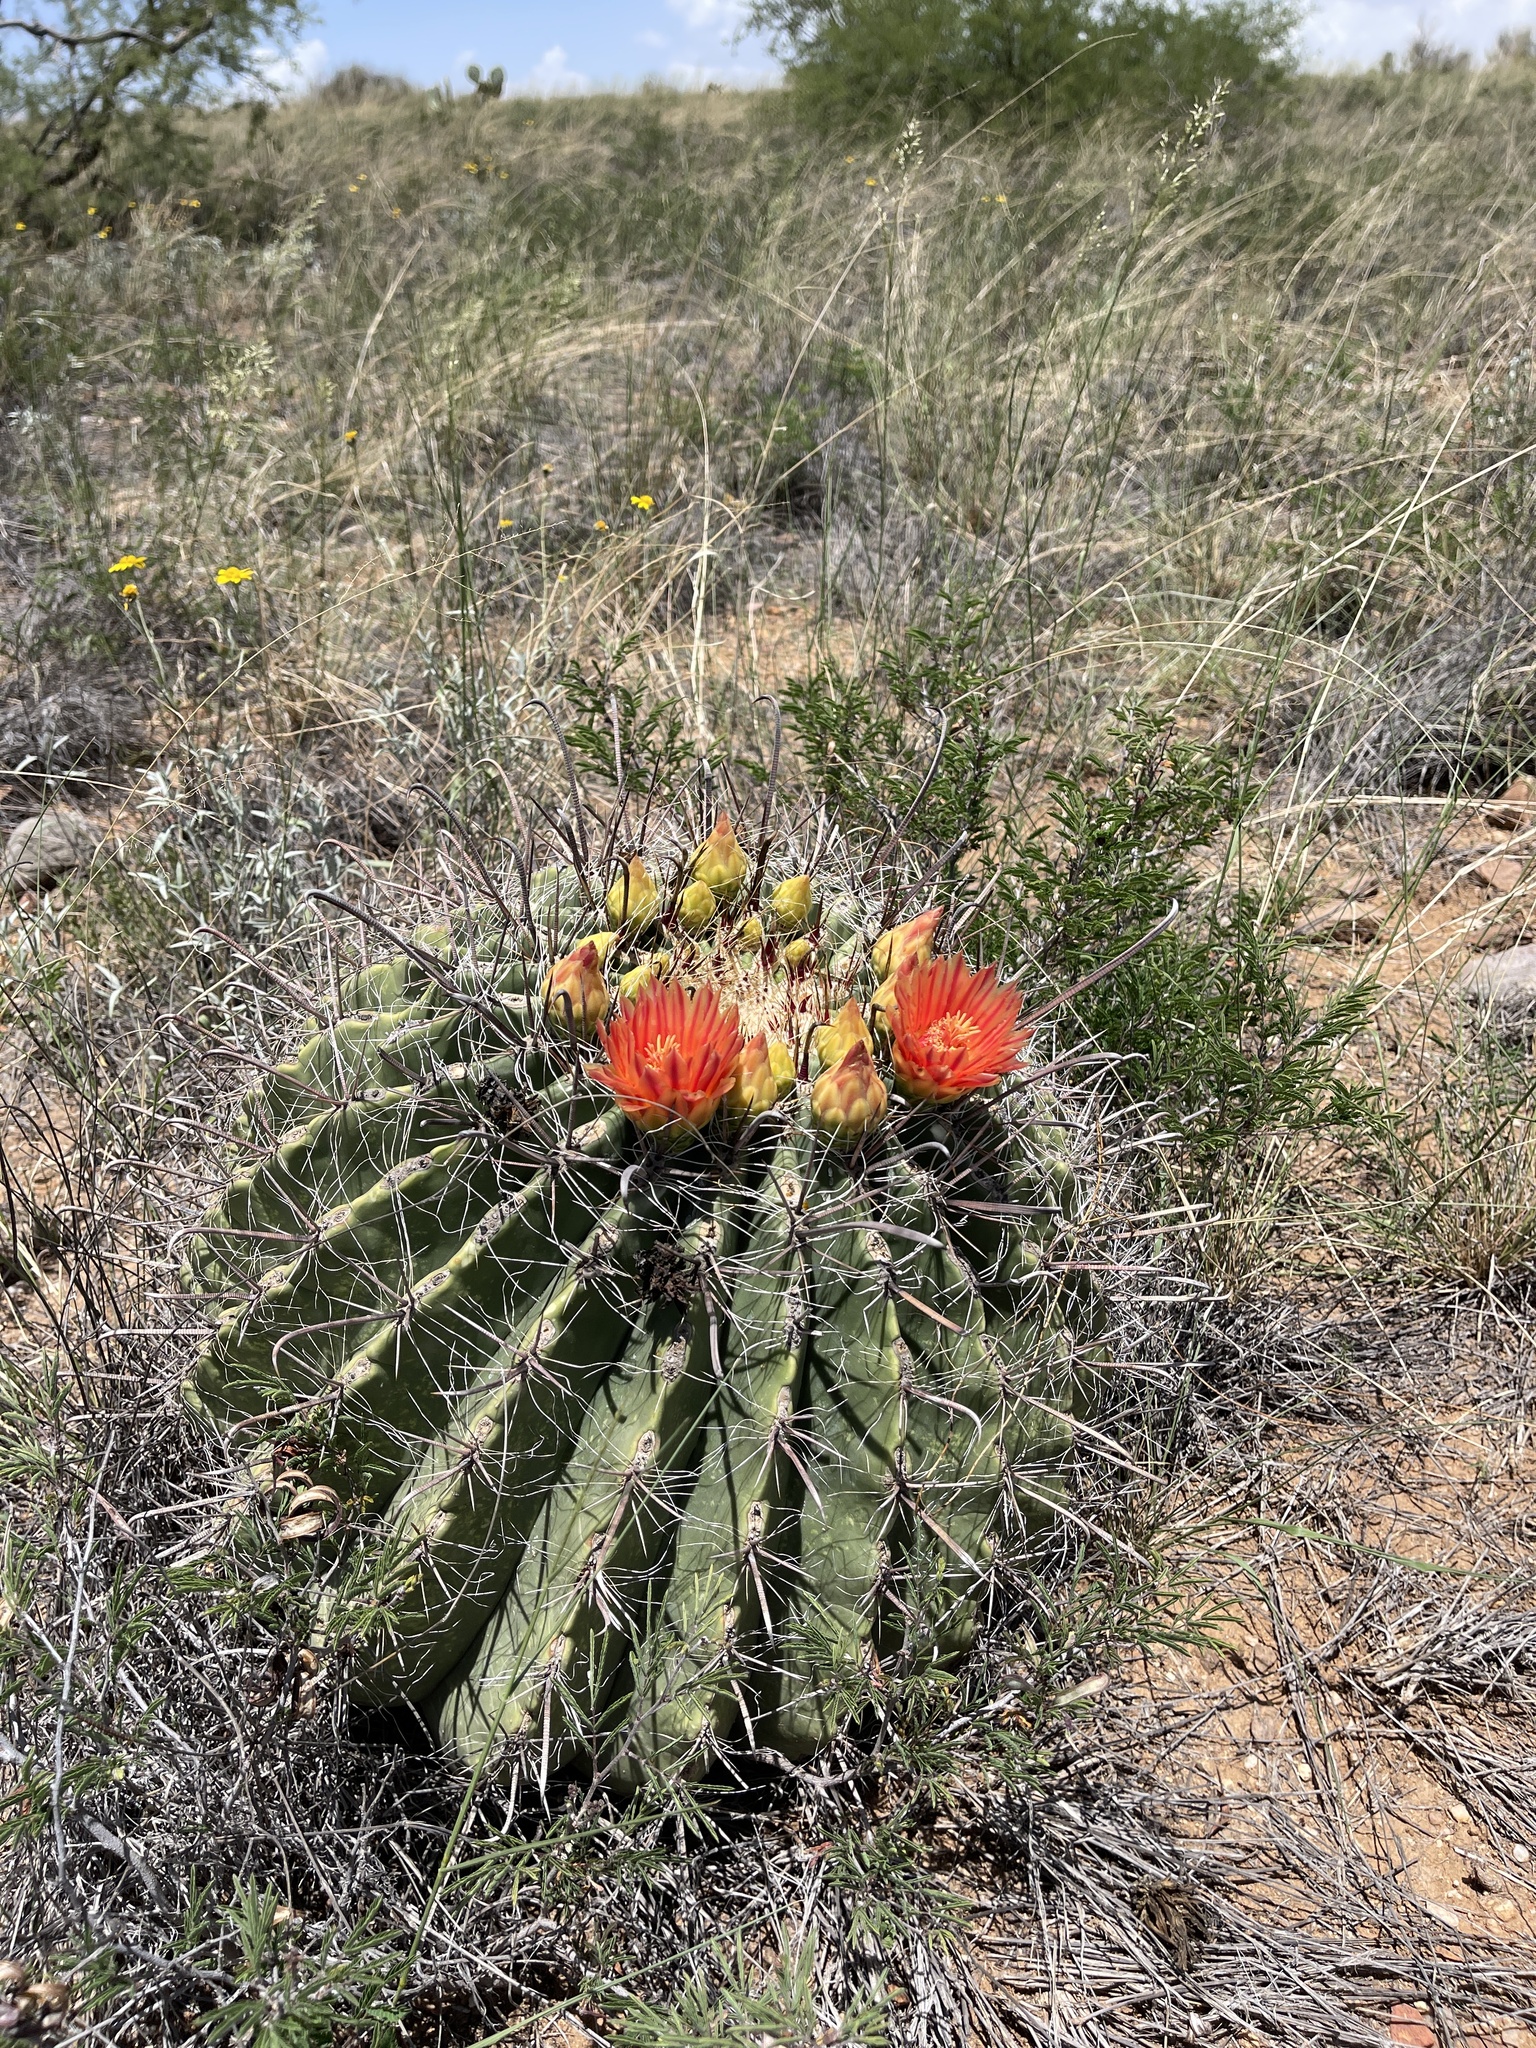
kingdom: Plantae
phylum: Tracheophyta
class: Magnoliopsida
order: Caryophyllales
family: Cactaceae
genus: Ferocactus
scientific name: Ferocactus wislizeni
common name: Candy barrel cactus
